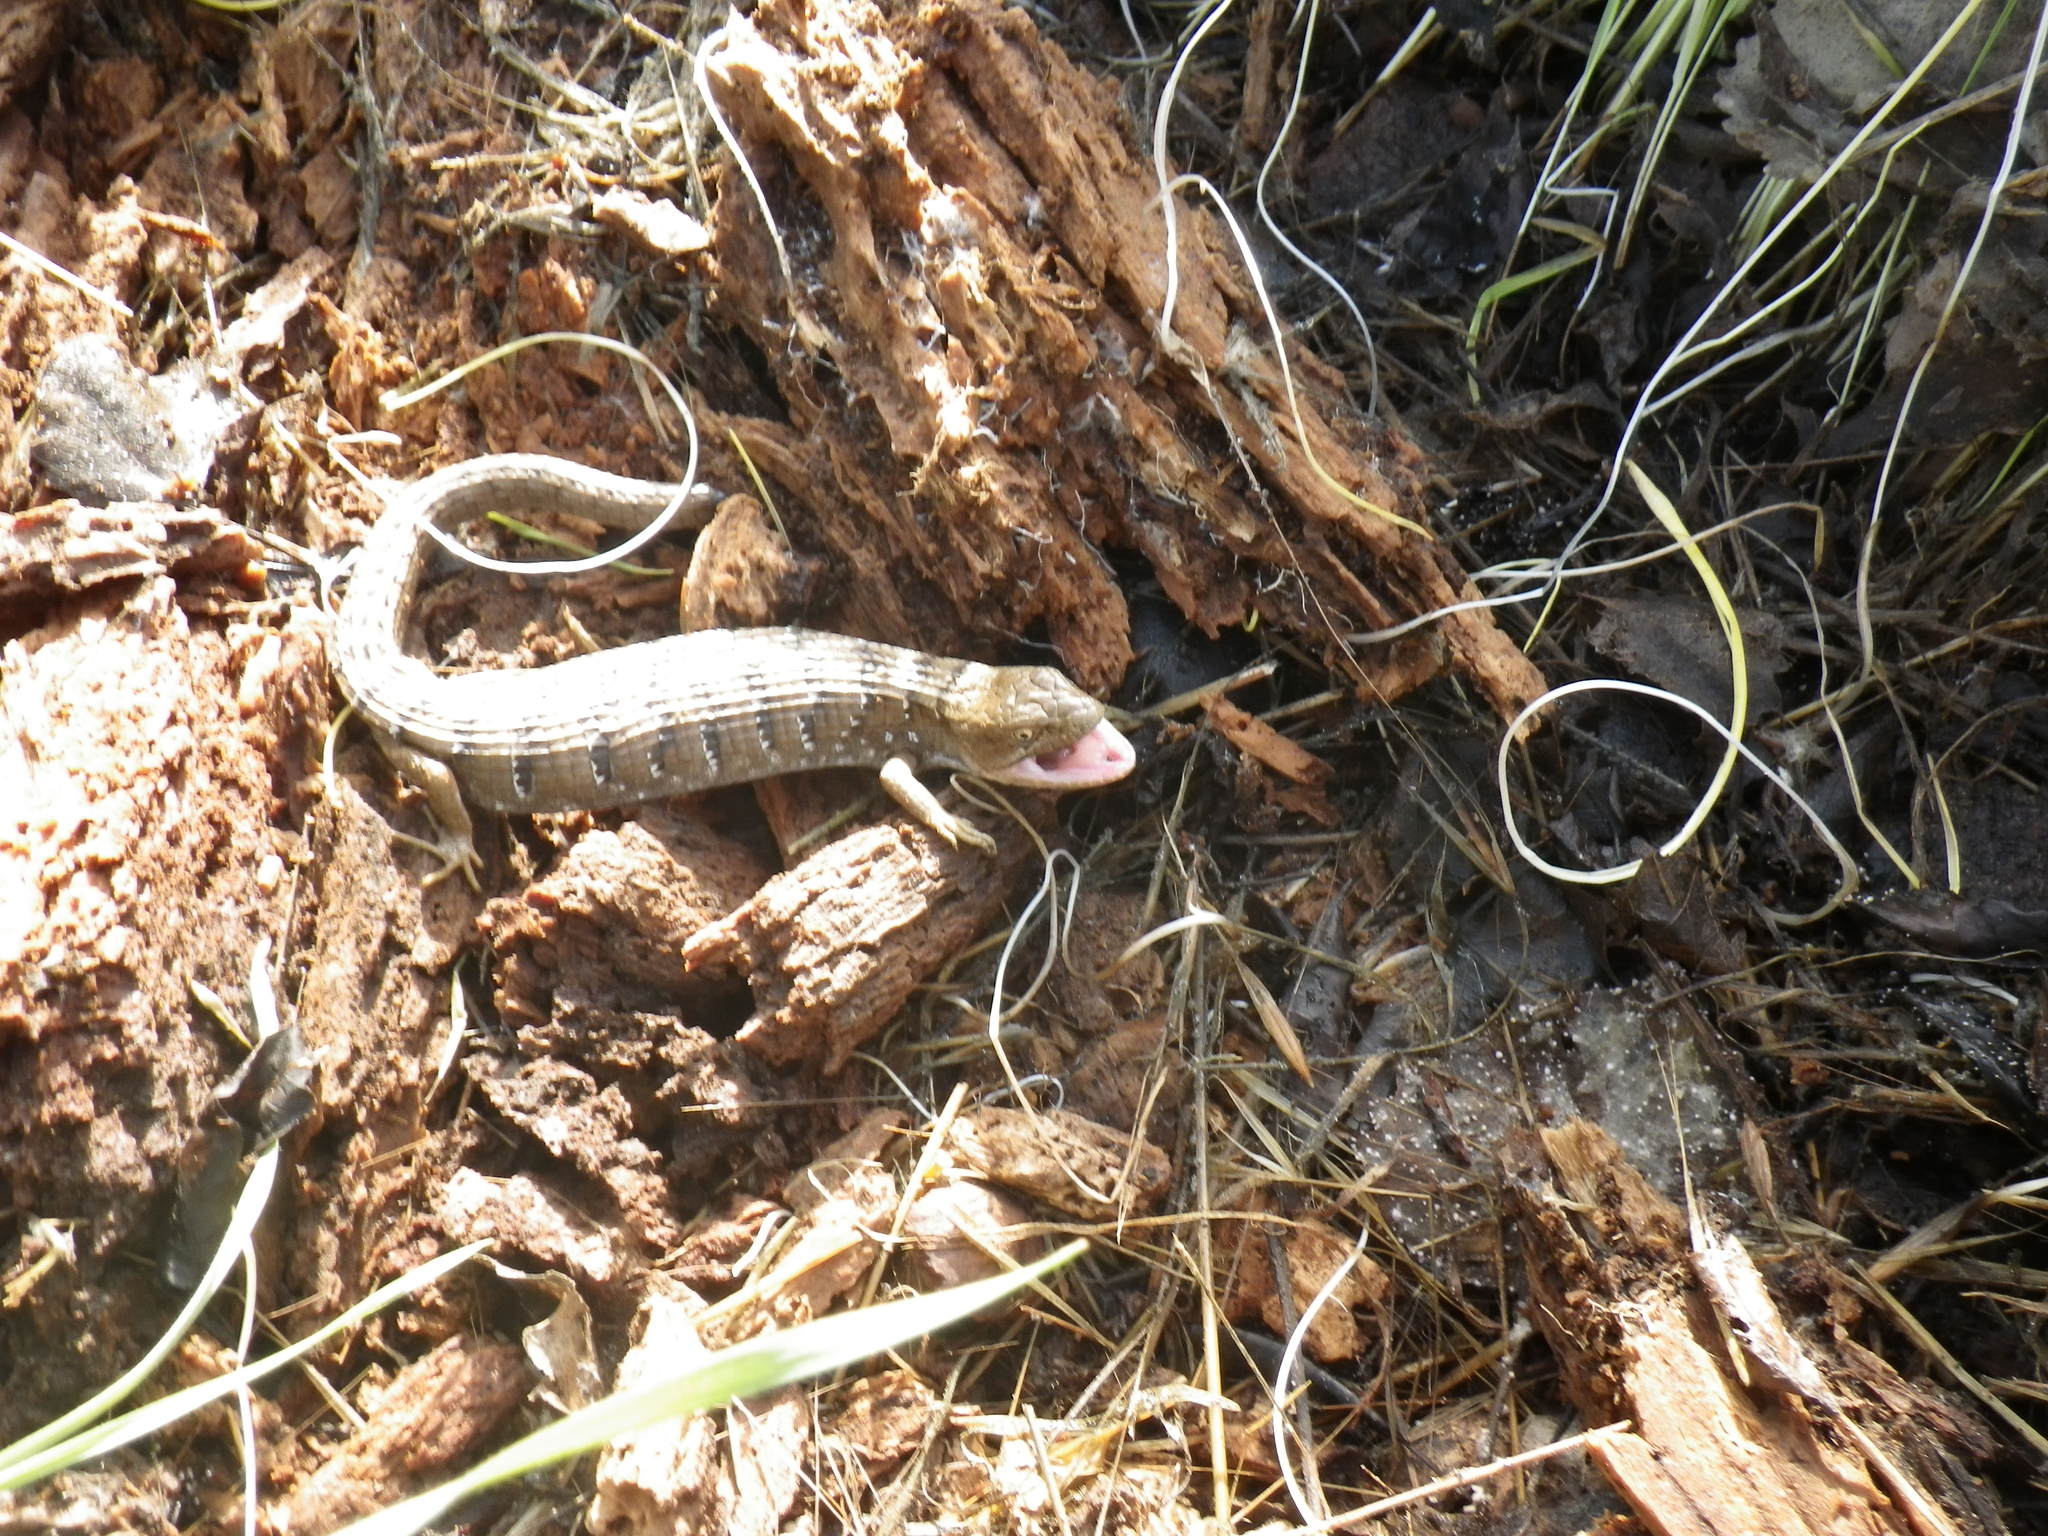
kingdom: Animalia
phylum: Chordata
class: Squamata
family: Anguidae
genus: Elgaria
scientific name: Elgaria multicarinata
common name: Southern alligator lizard
